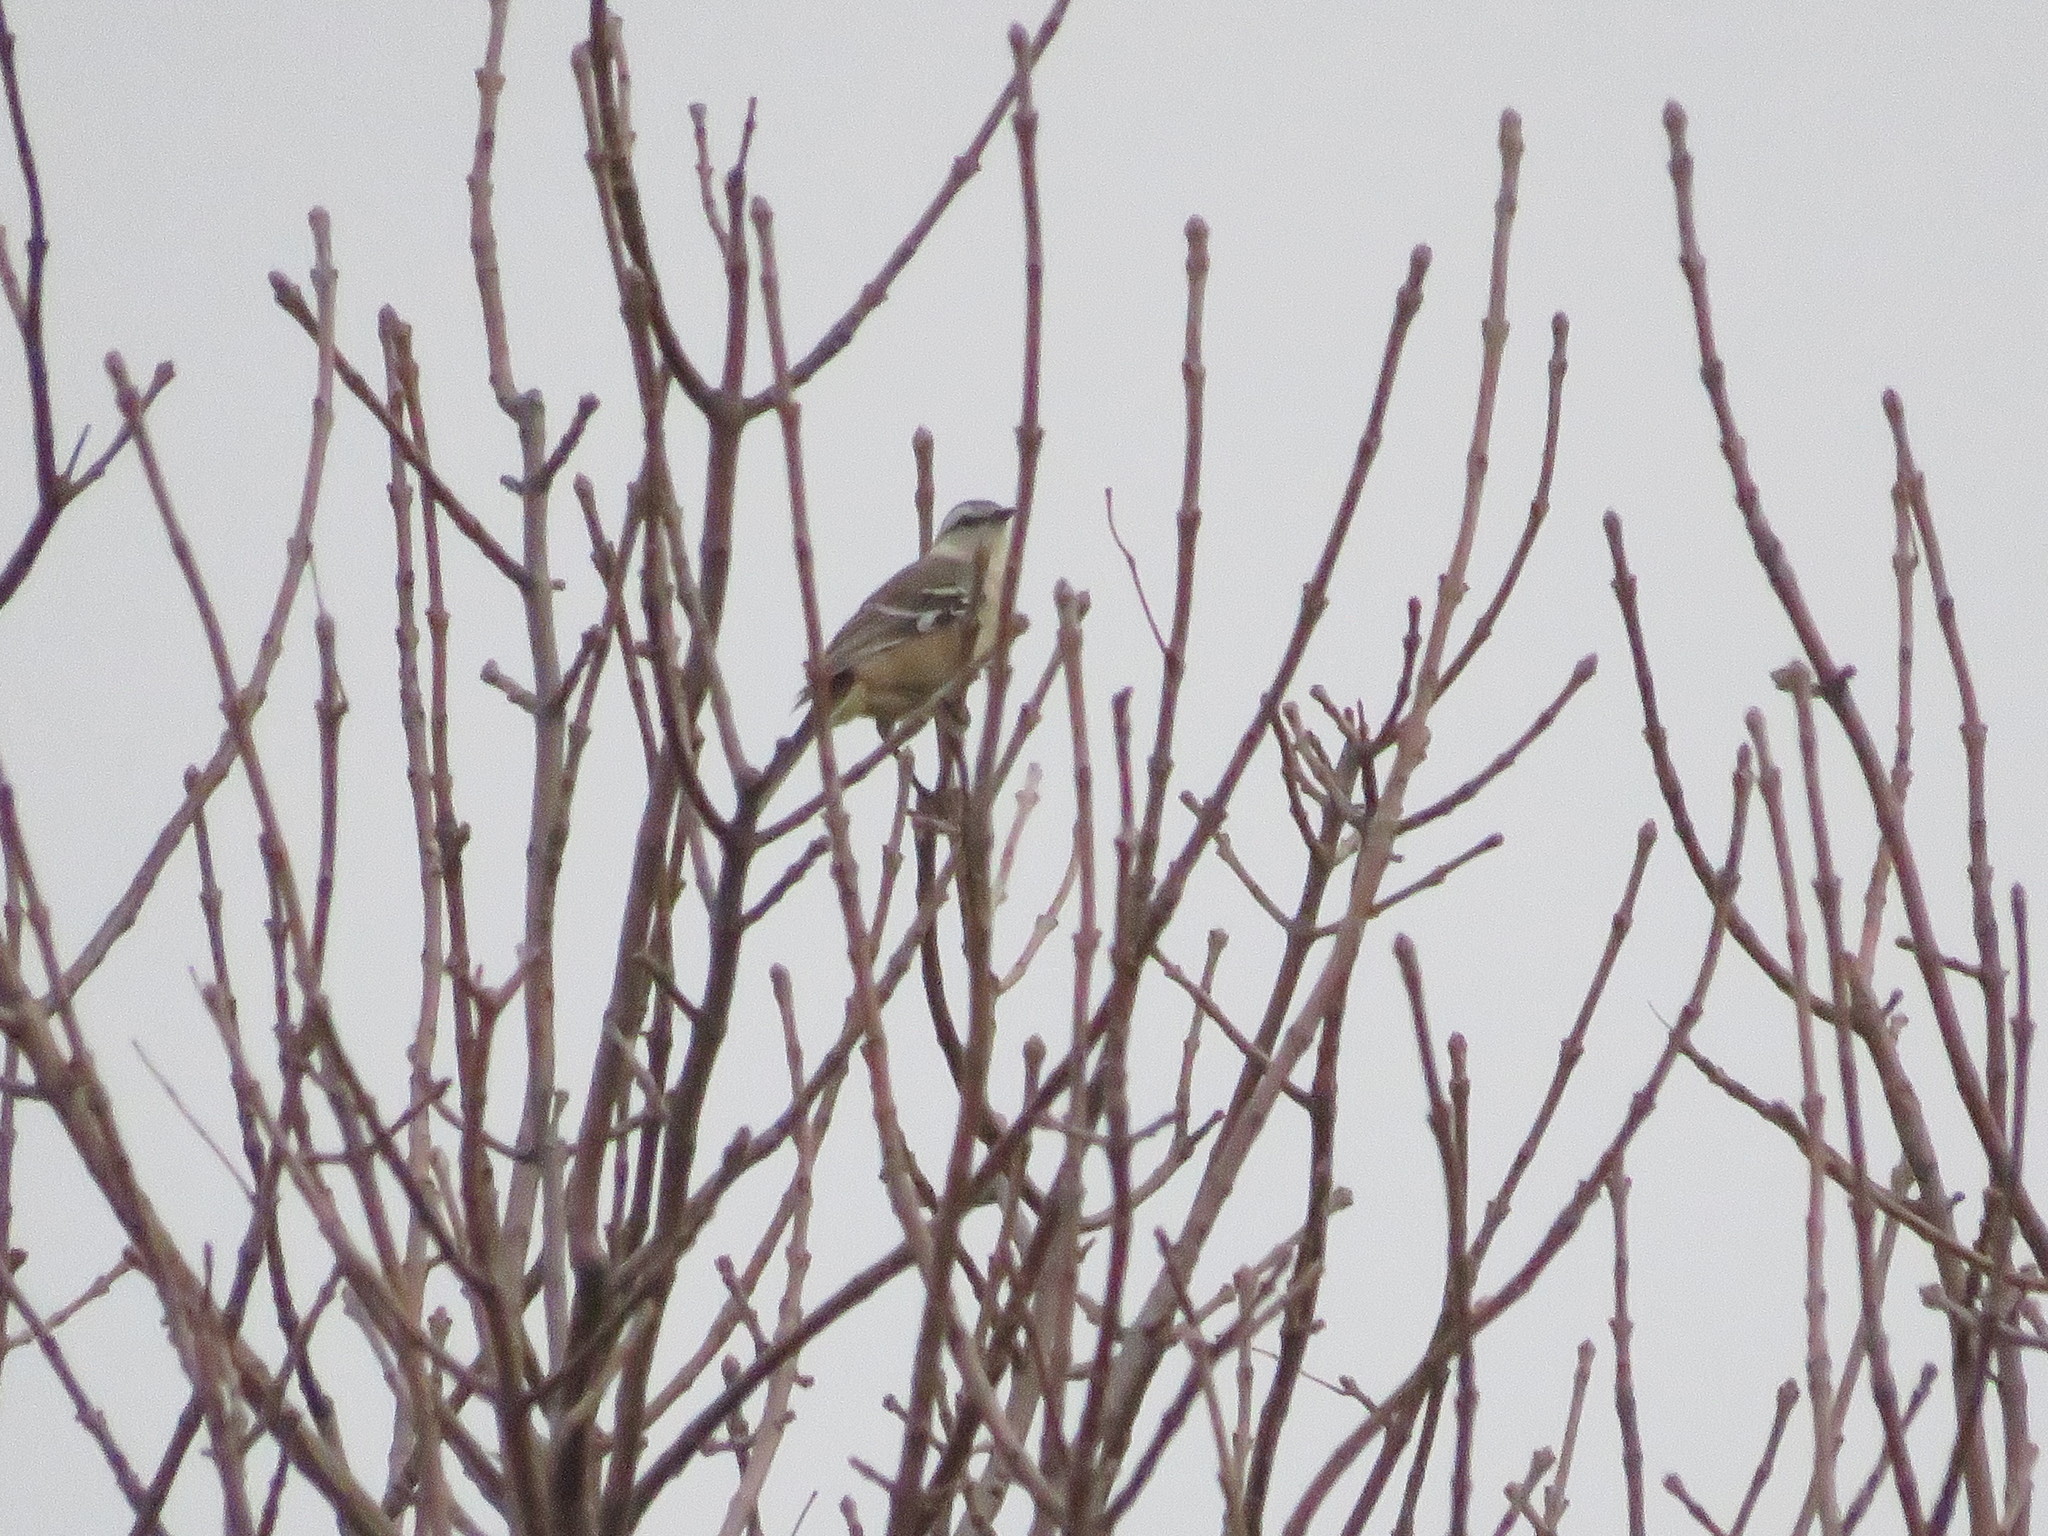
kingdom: Animalia
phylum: Chordata
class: Aves
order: Passeriformes
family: Mimidae
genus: Mimus
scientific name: Mimus saturninus
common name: Chalk-browed mockingbird
